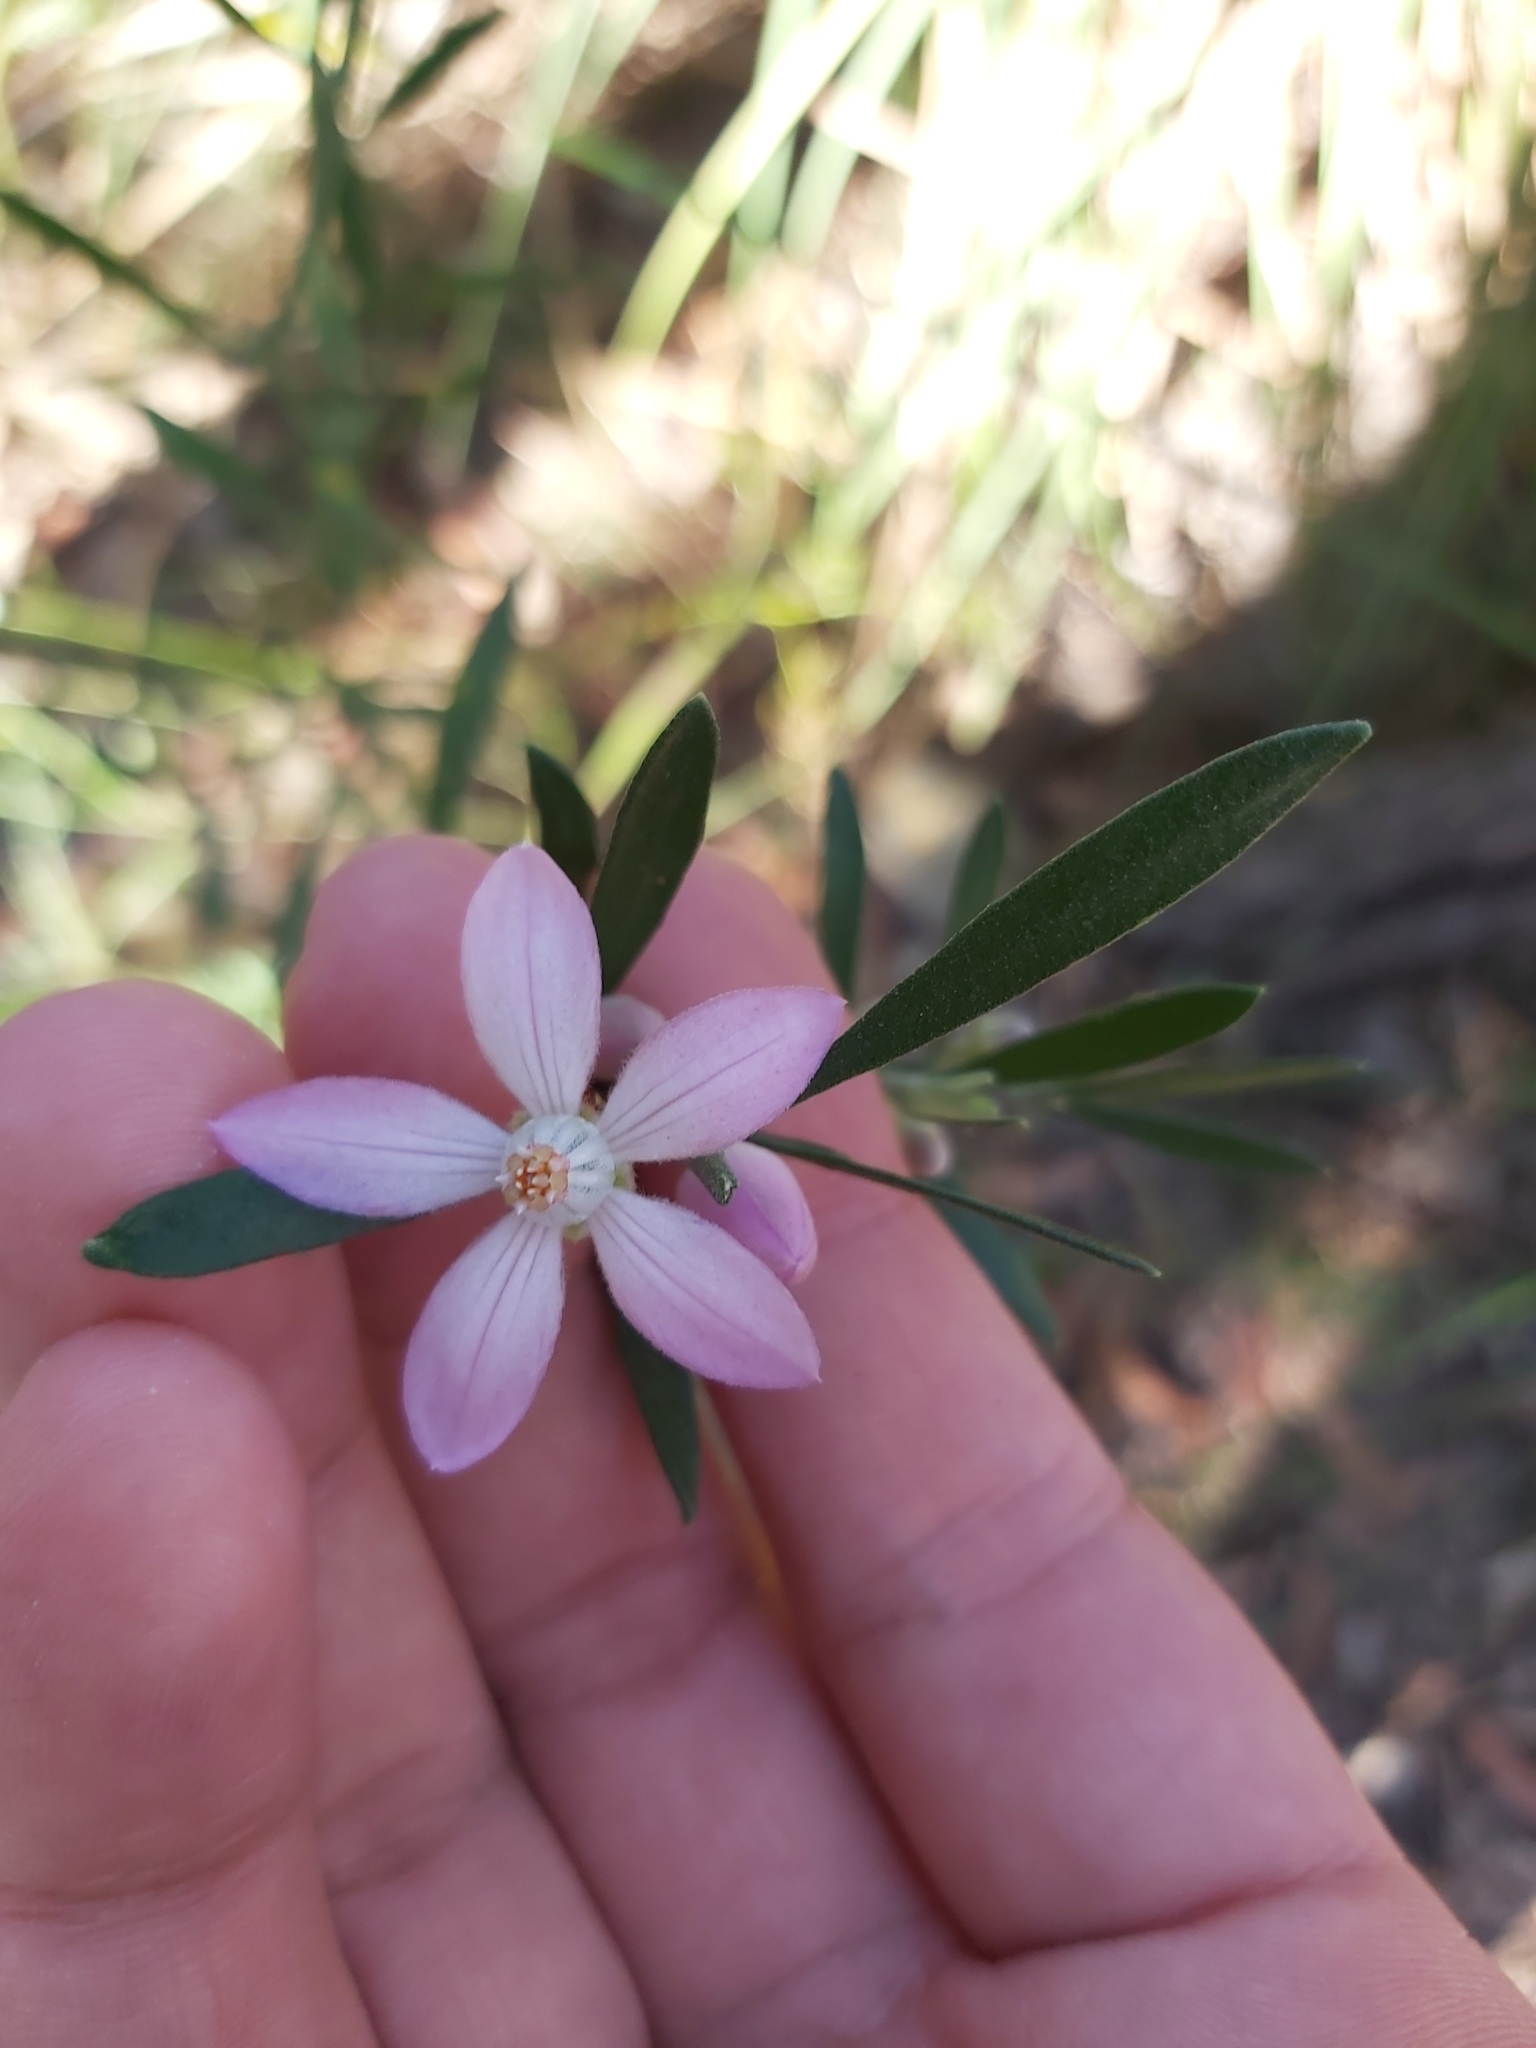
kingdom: Plantae
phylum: Tracheophyta
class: Magnoliopsida
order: Sapindales
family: Rutaceae
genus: Eriostemon
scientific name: Eriostemon australasius
